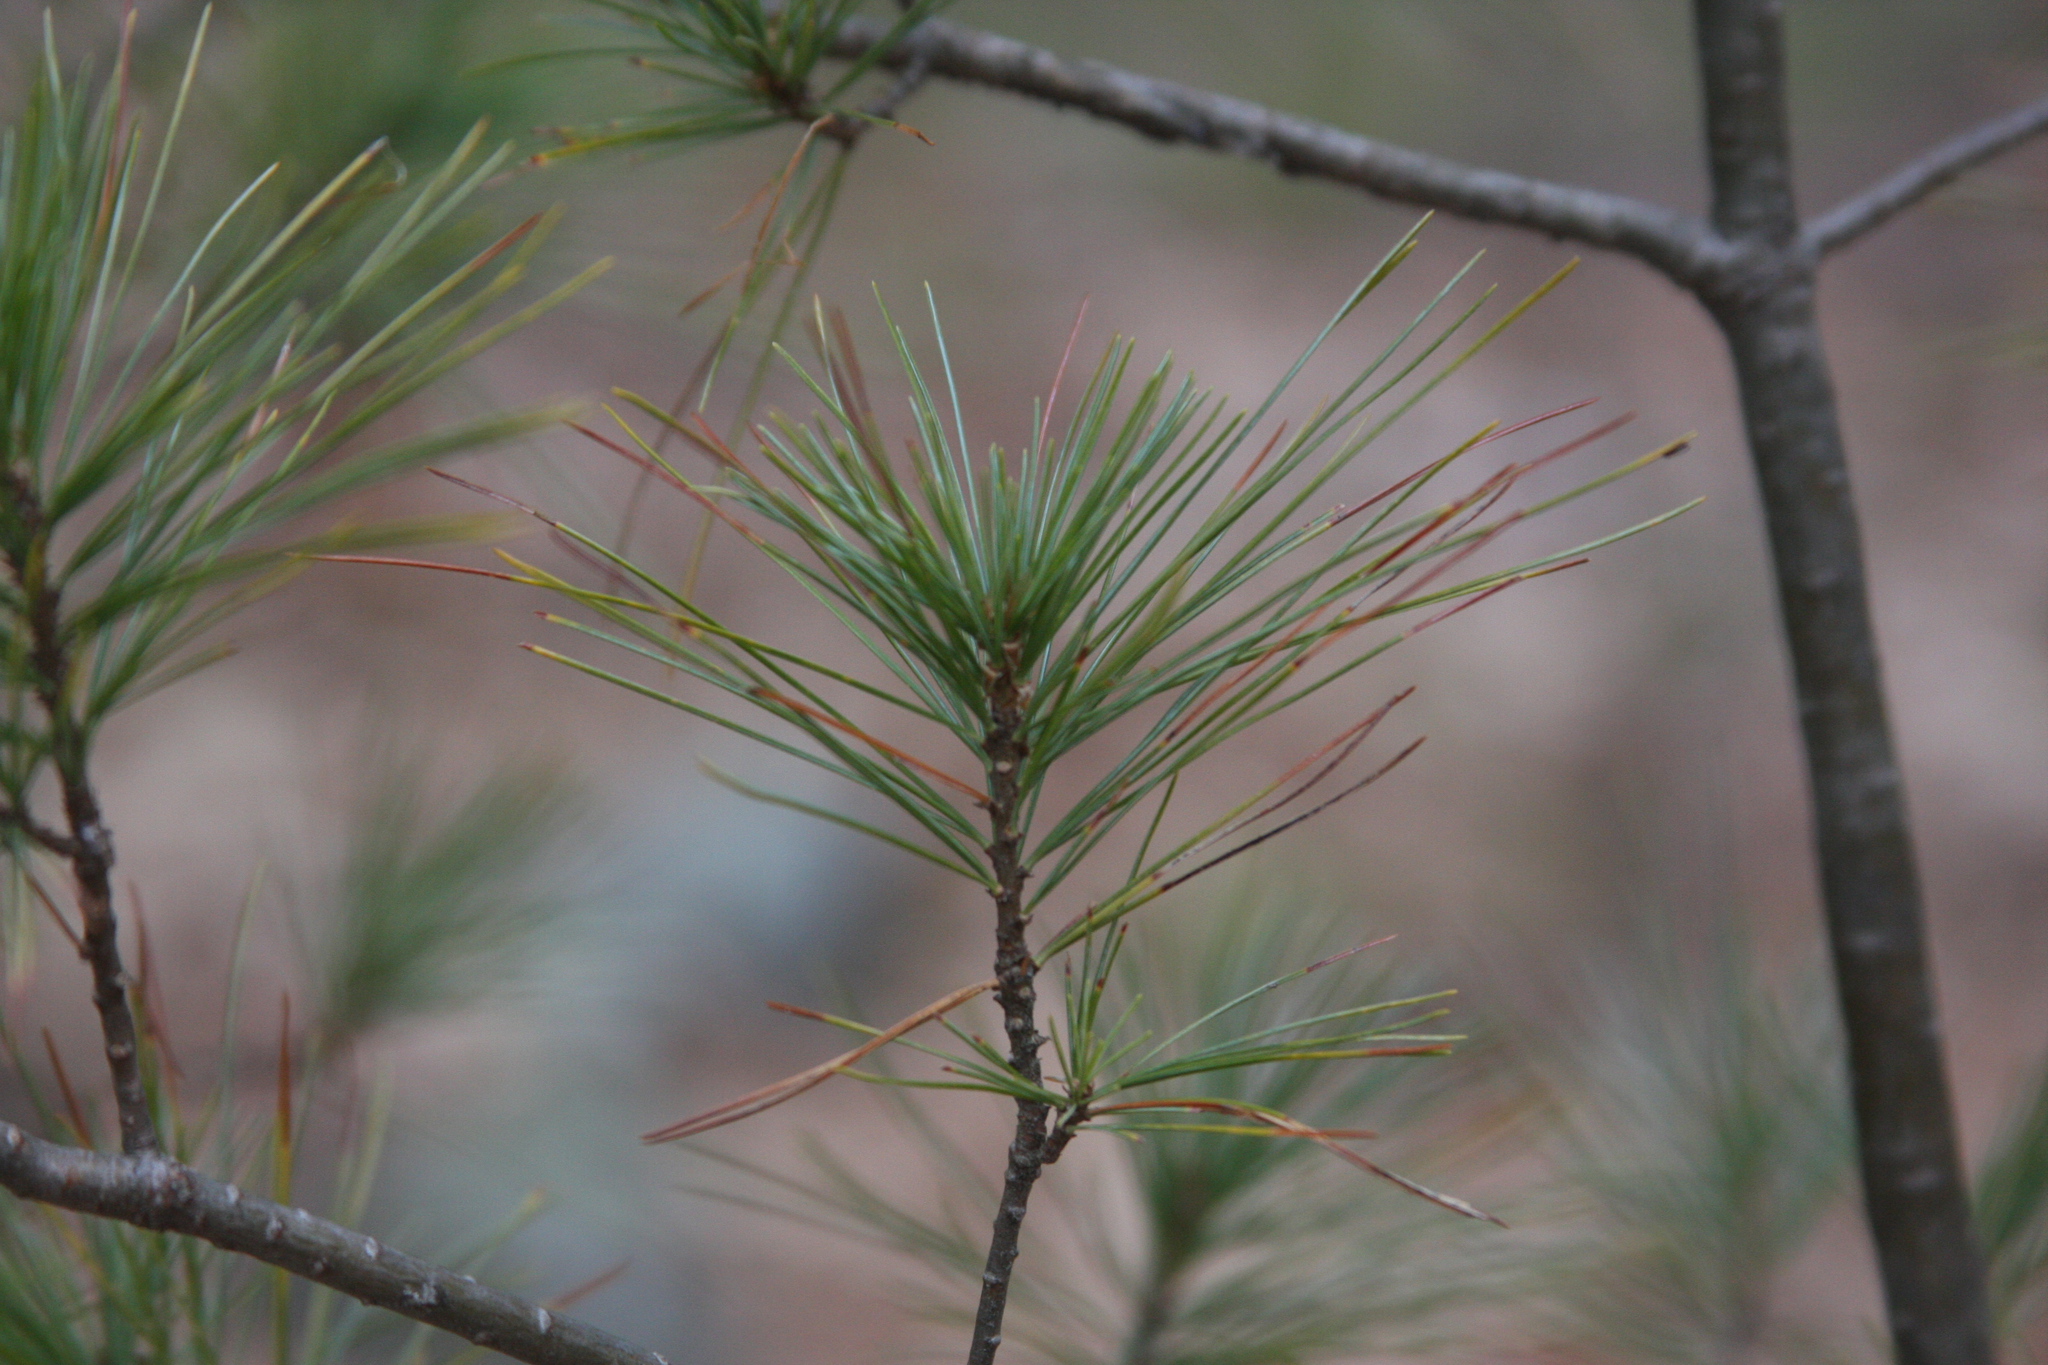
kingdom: Plantae
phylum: Tracheophyta
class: Pinopsida
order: Pinales
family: Pinaceae
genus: Pinus
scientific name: Pinus strobus
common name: Weymouth pine
